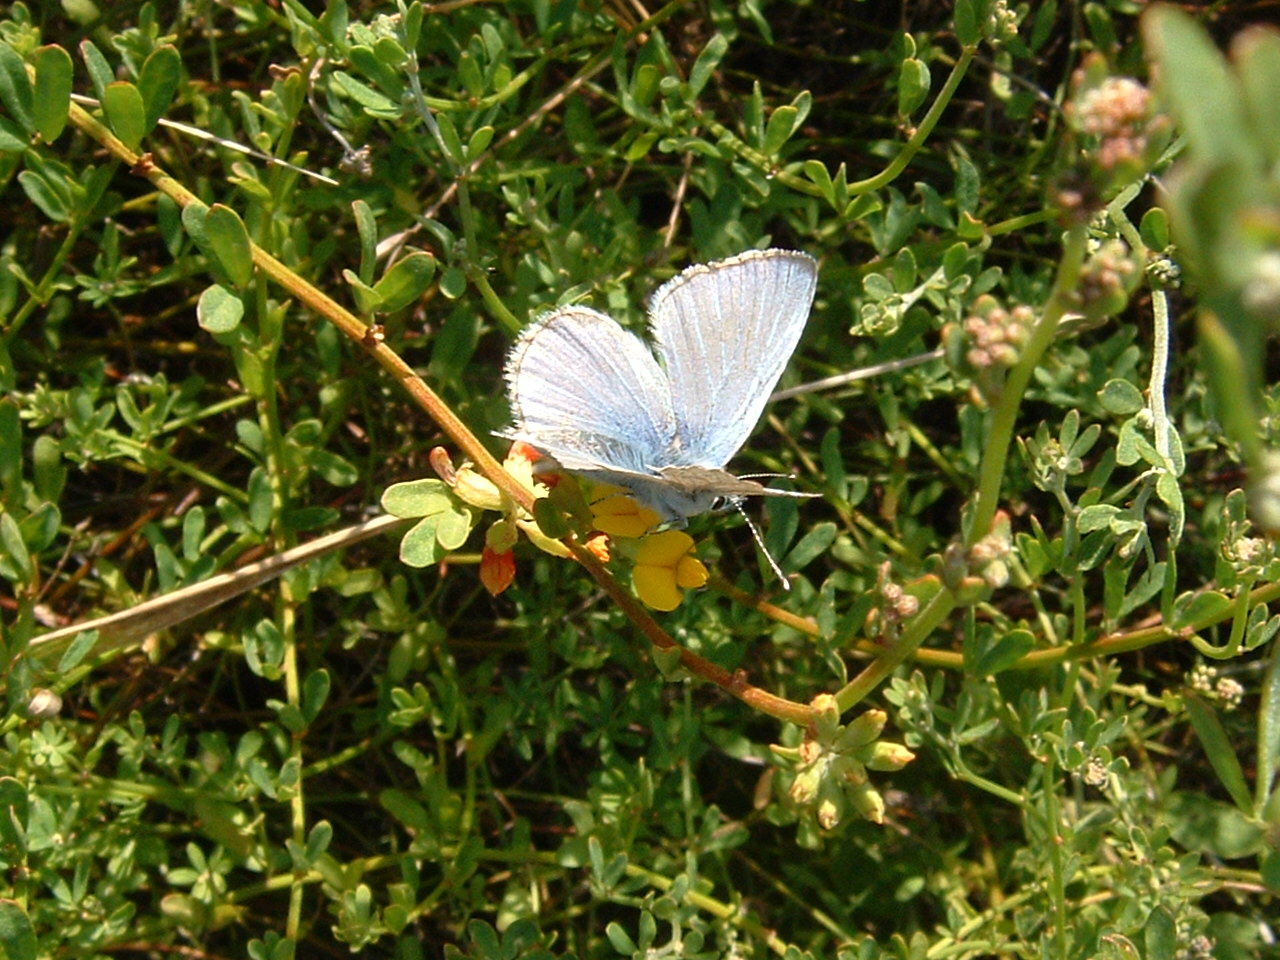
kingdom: Animalia
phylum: Arthropoda
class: Insecta
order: Lepidoptera
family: Lycaenidae
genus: Glaucopsyche
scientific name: Glaucopsyche lygdamus
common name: Silvery blue
